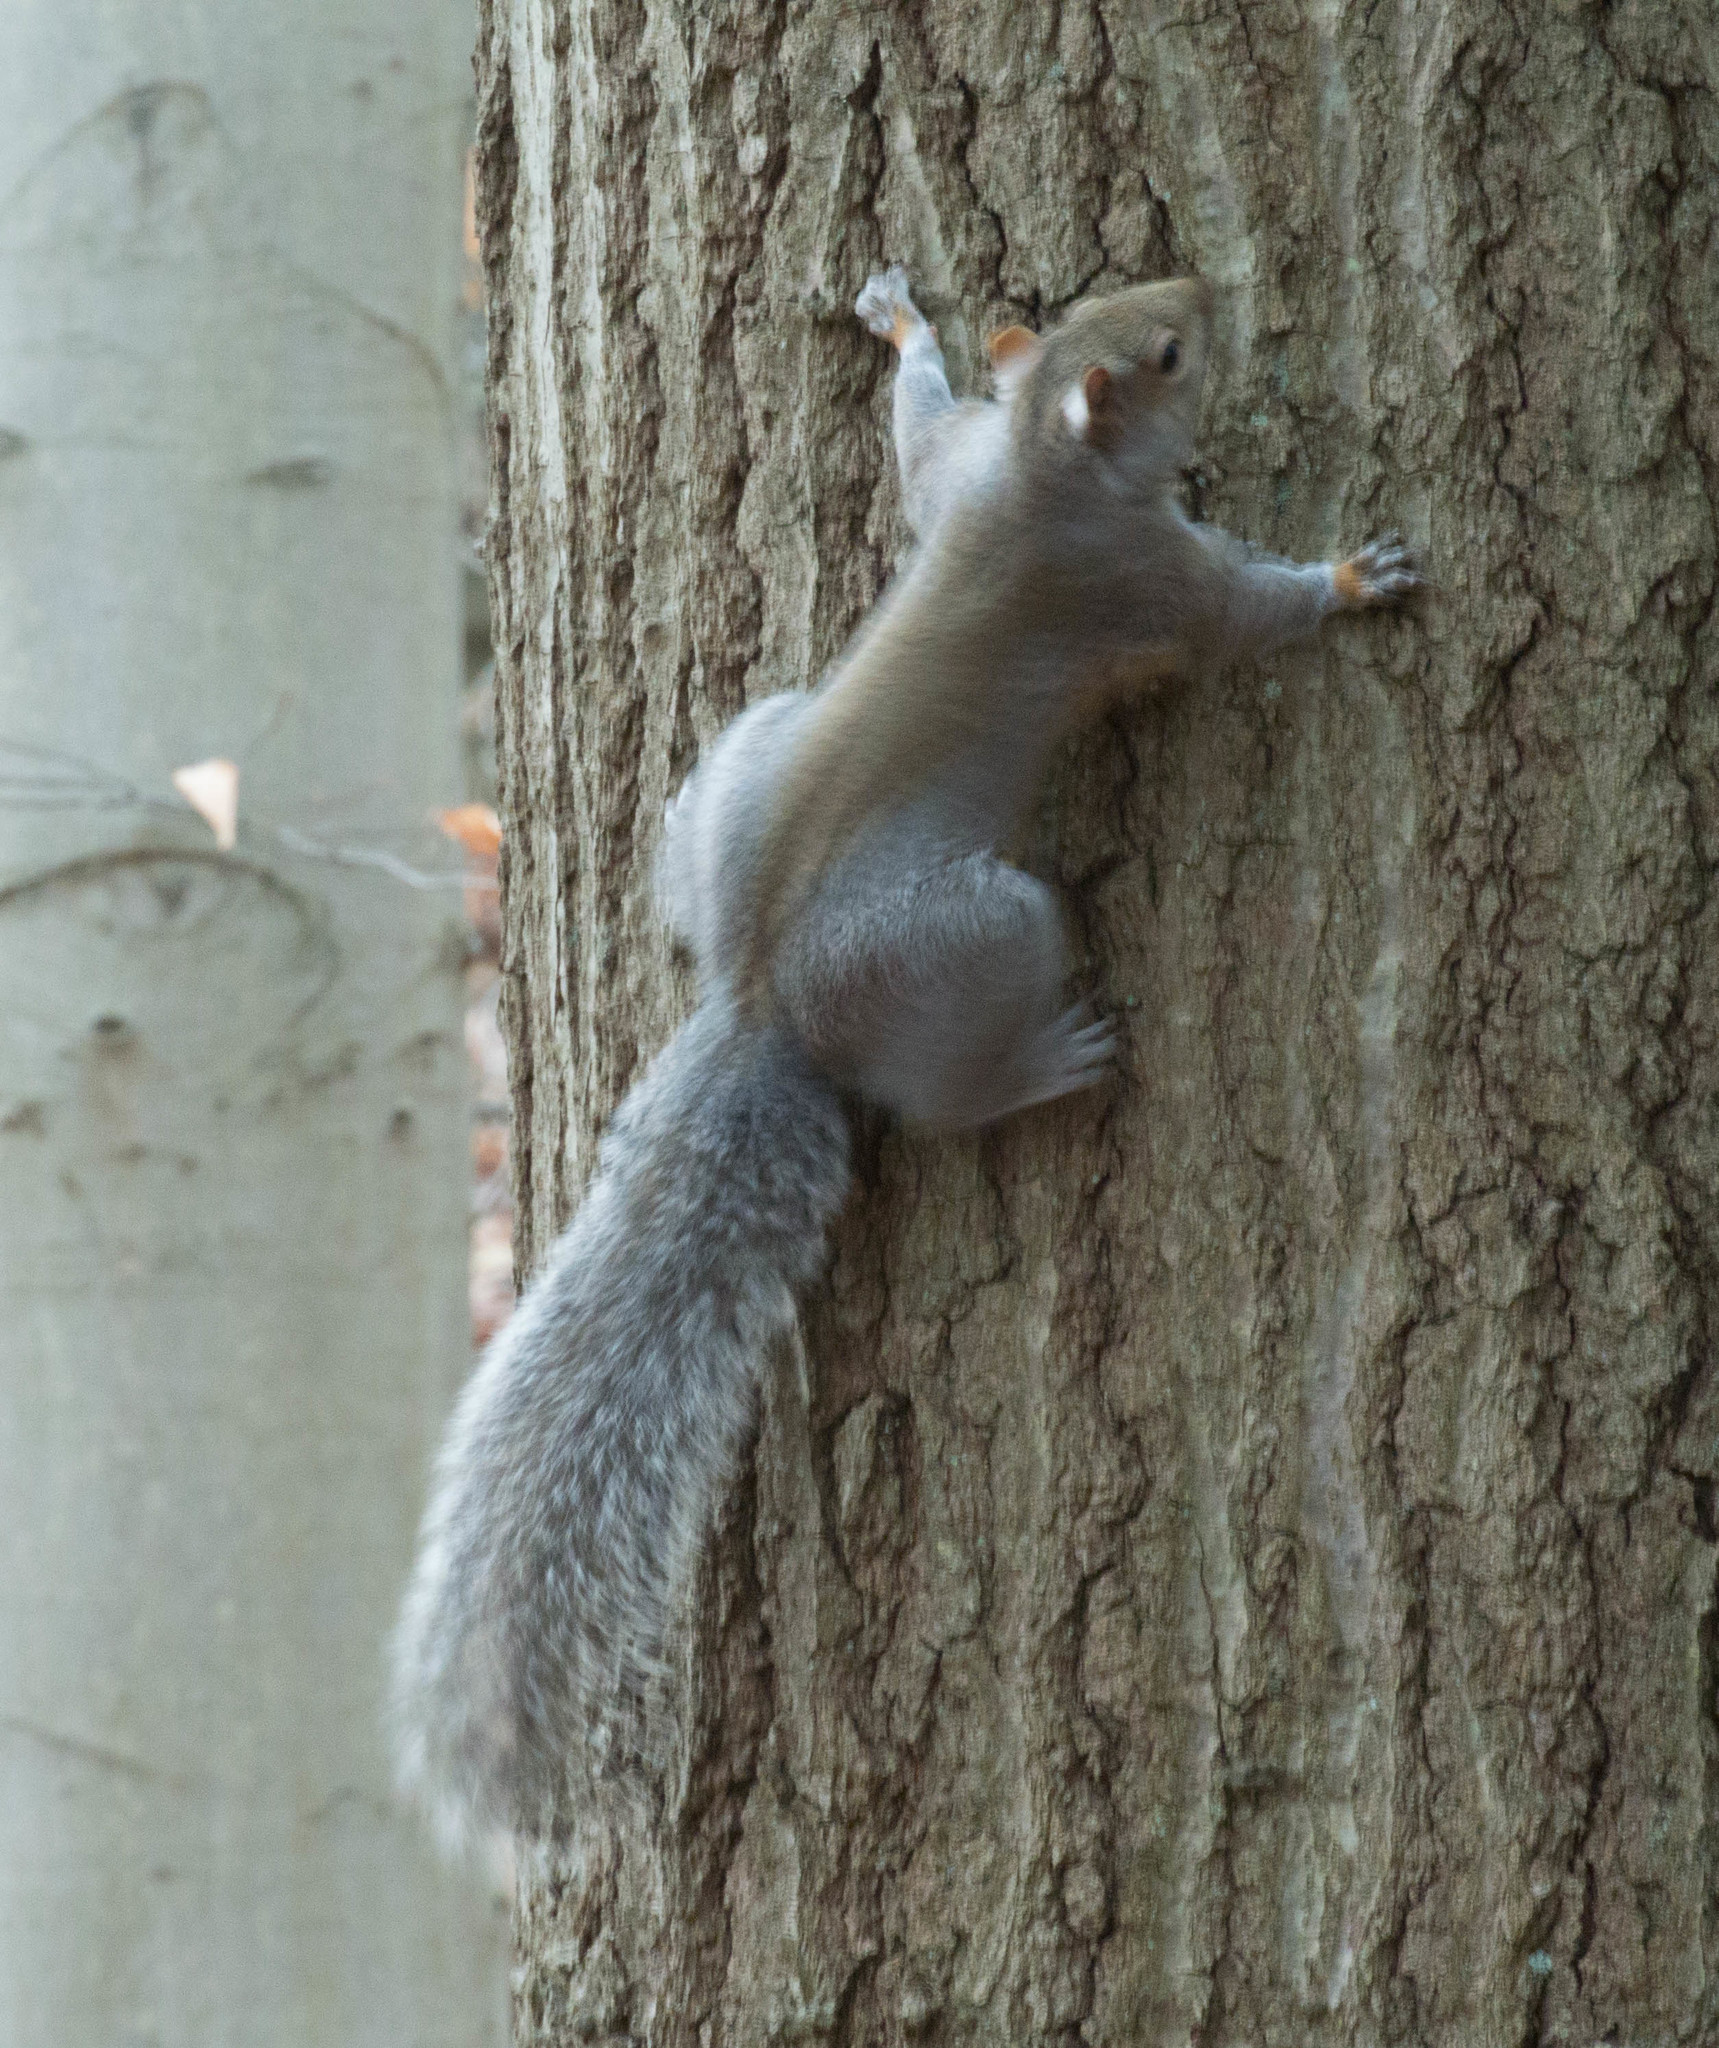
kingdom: Animalia
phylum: Chordata
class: Mammalia
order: Rodentia
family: Sciuridae
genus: Sciurus
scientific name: Sciurus carolinensis
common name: Eastern gray squirrel
